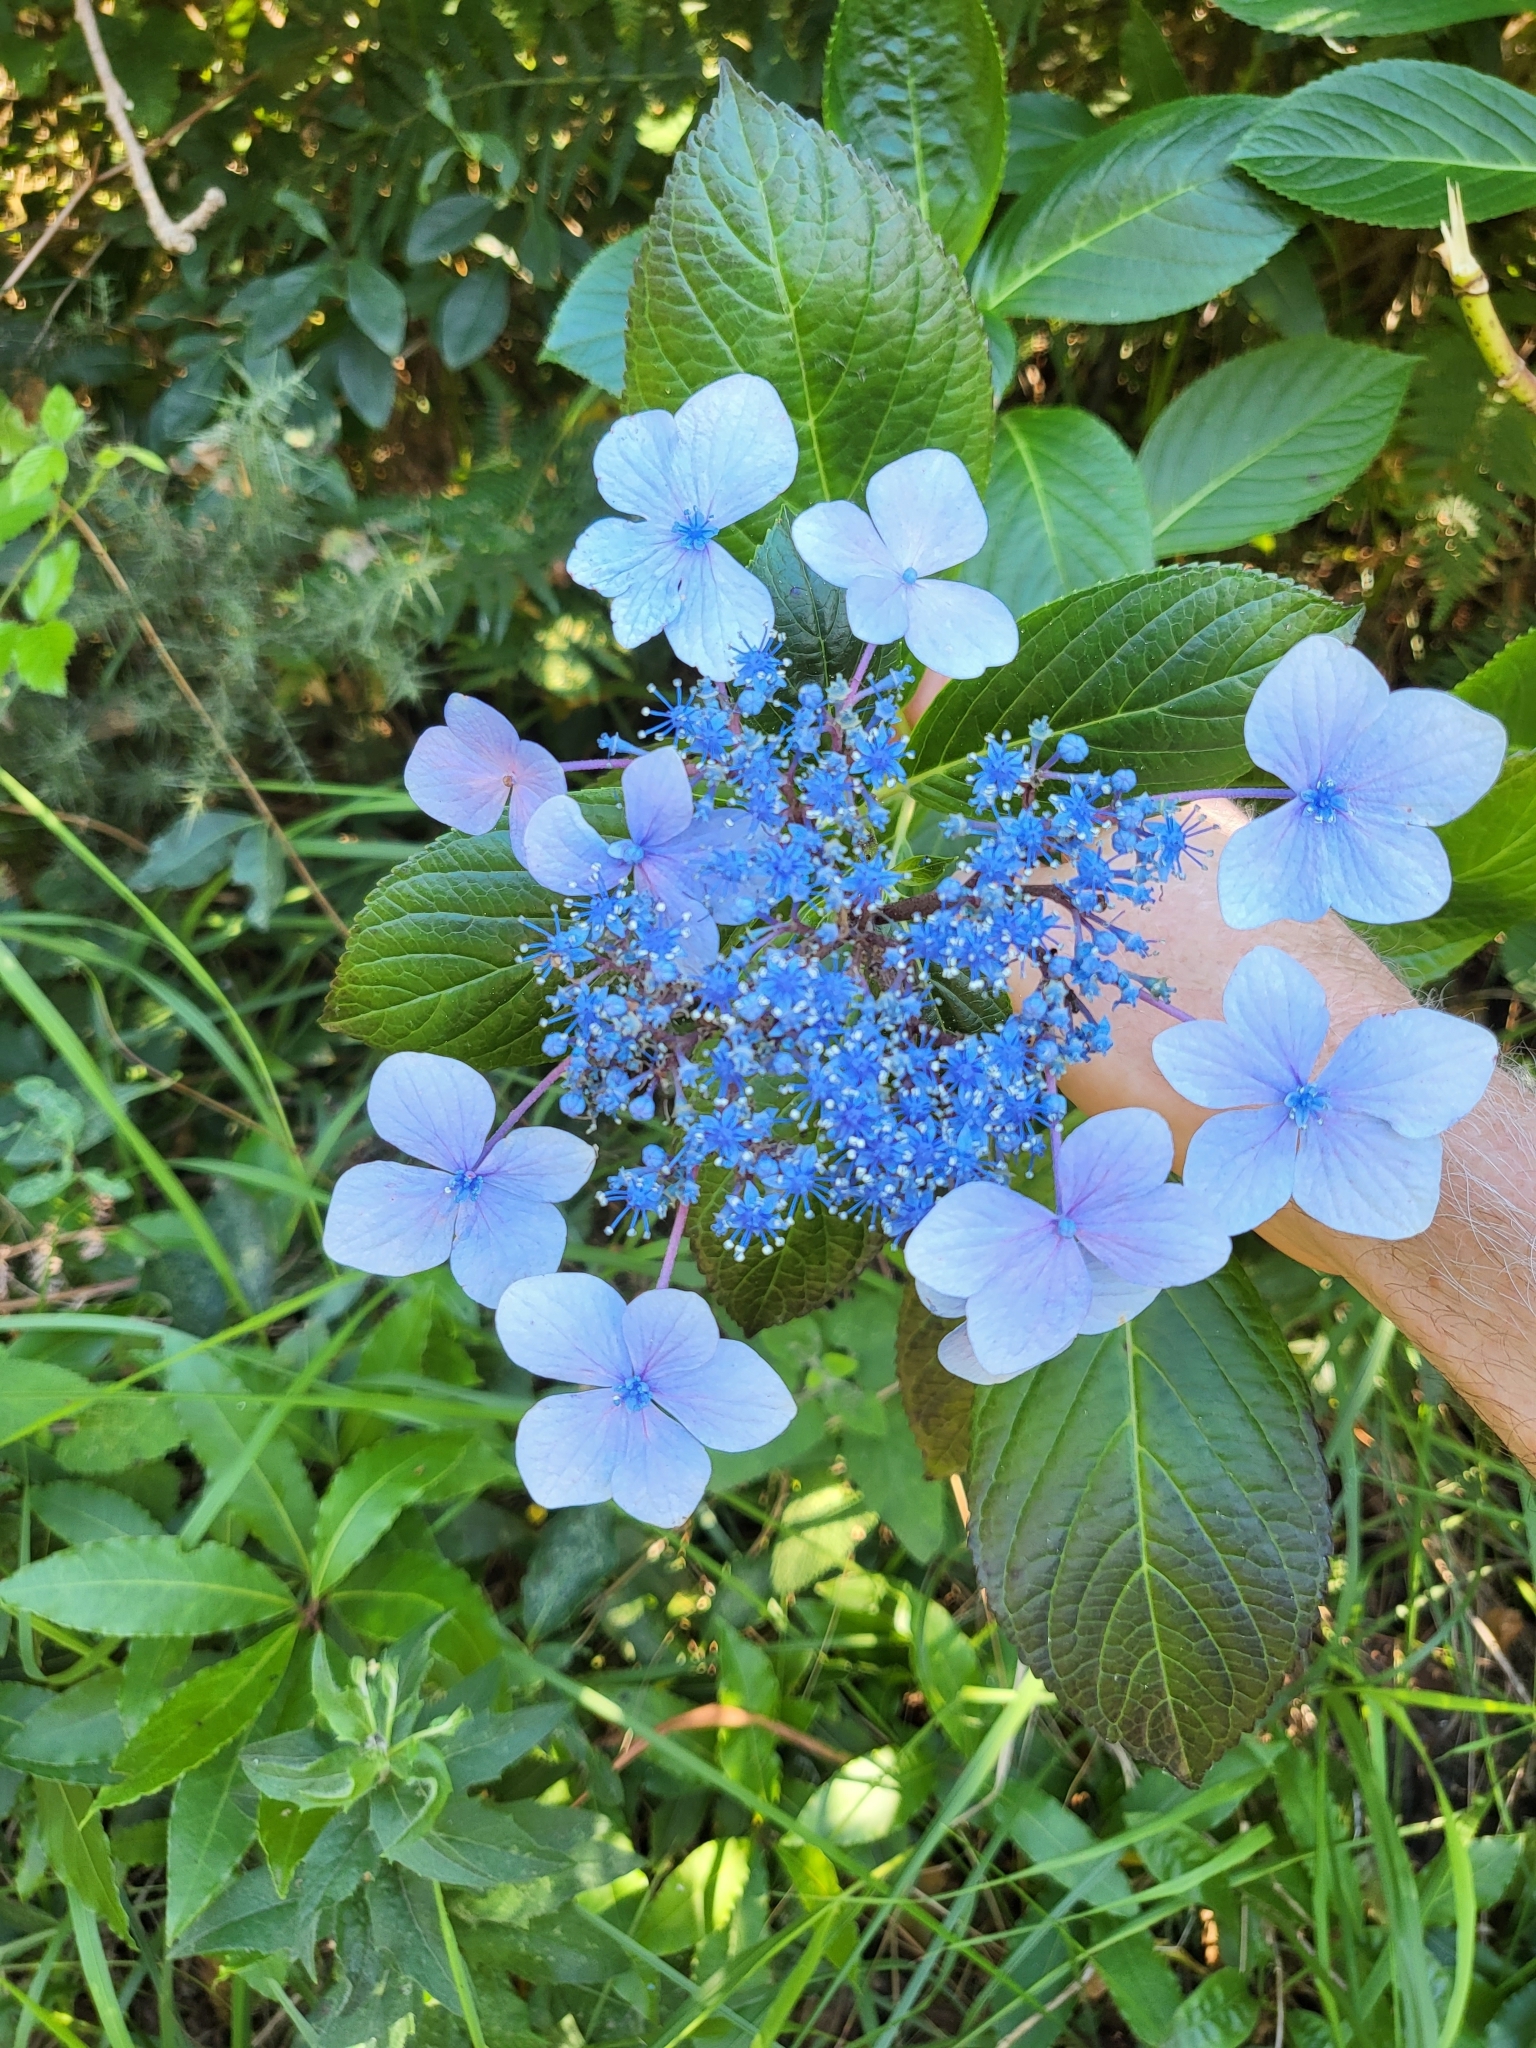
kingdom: Plantae
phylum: Tracheophyta
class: Magnoliopsida
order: Cornales
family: Hydrangeaceae
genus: Hydrangea
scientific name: Hydrangea macrophylla
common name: Hydrangea
